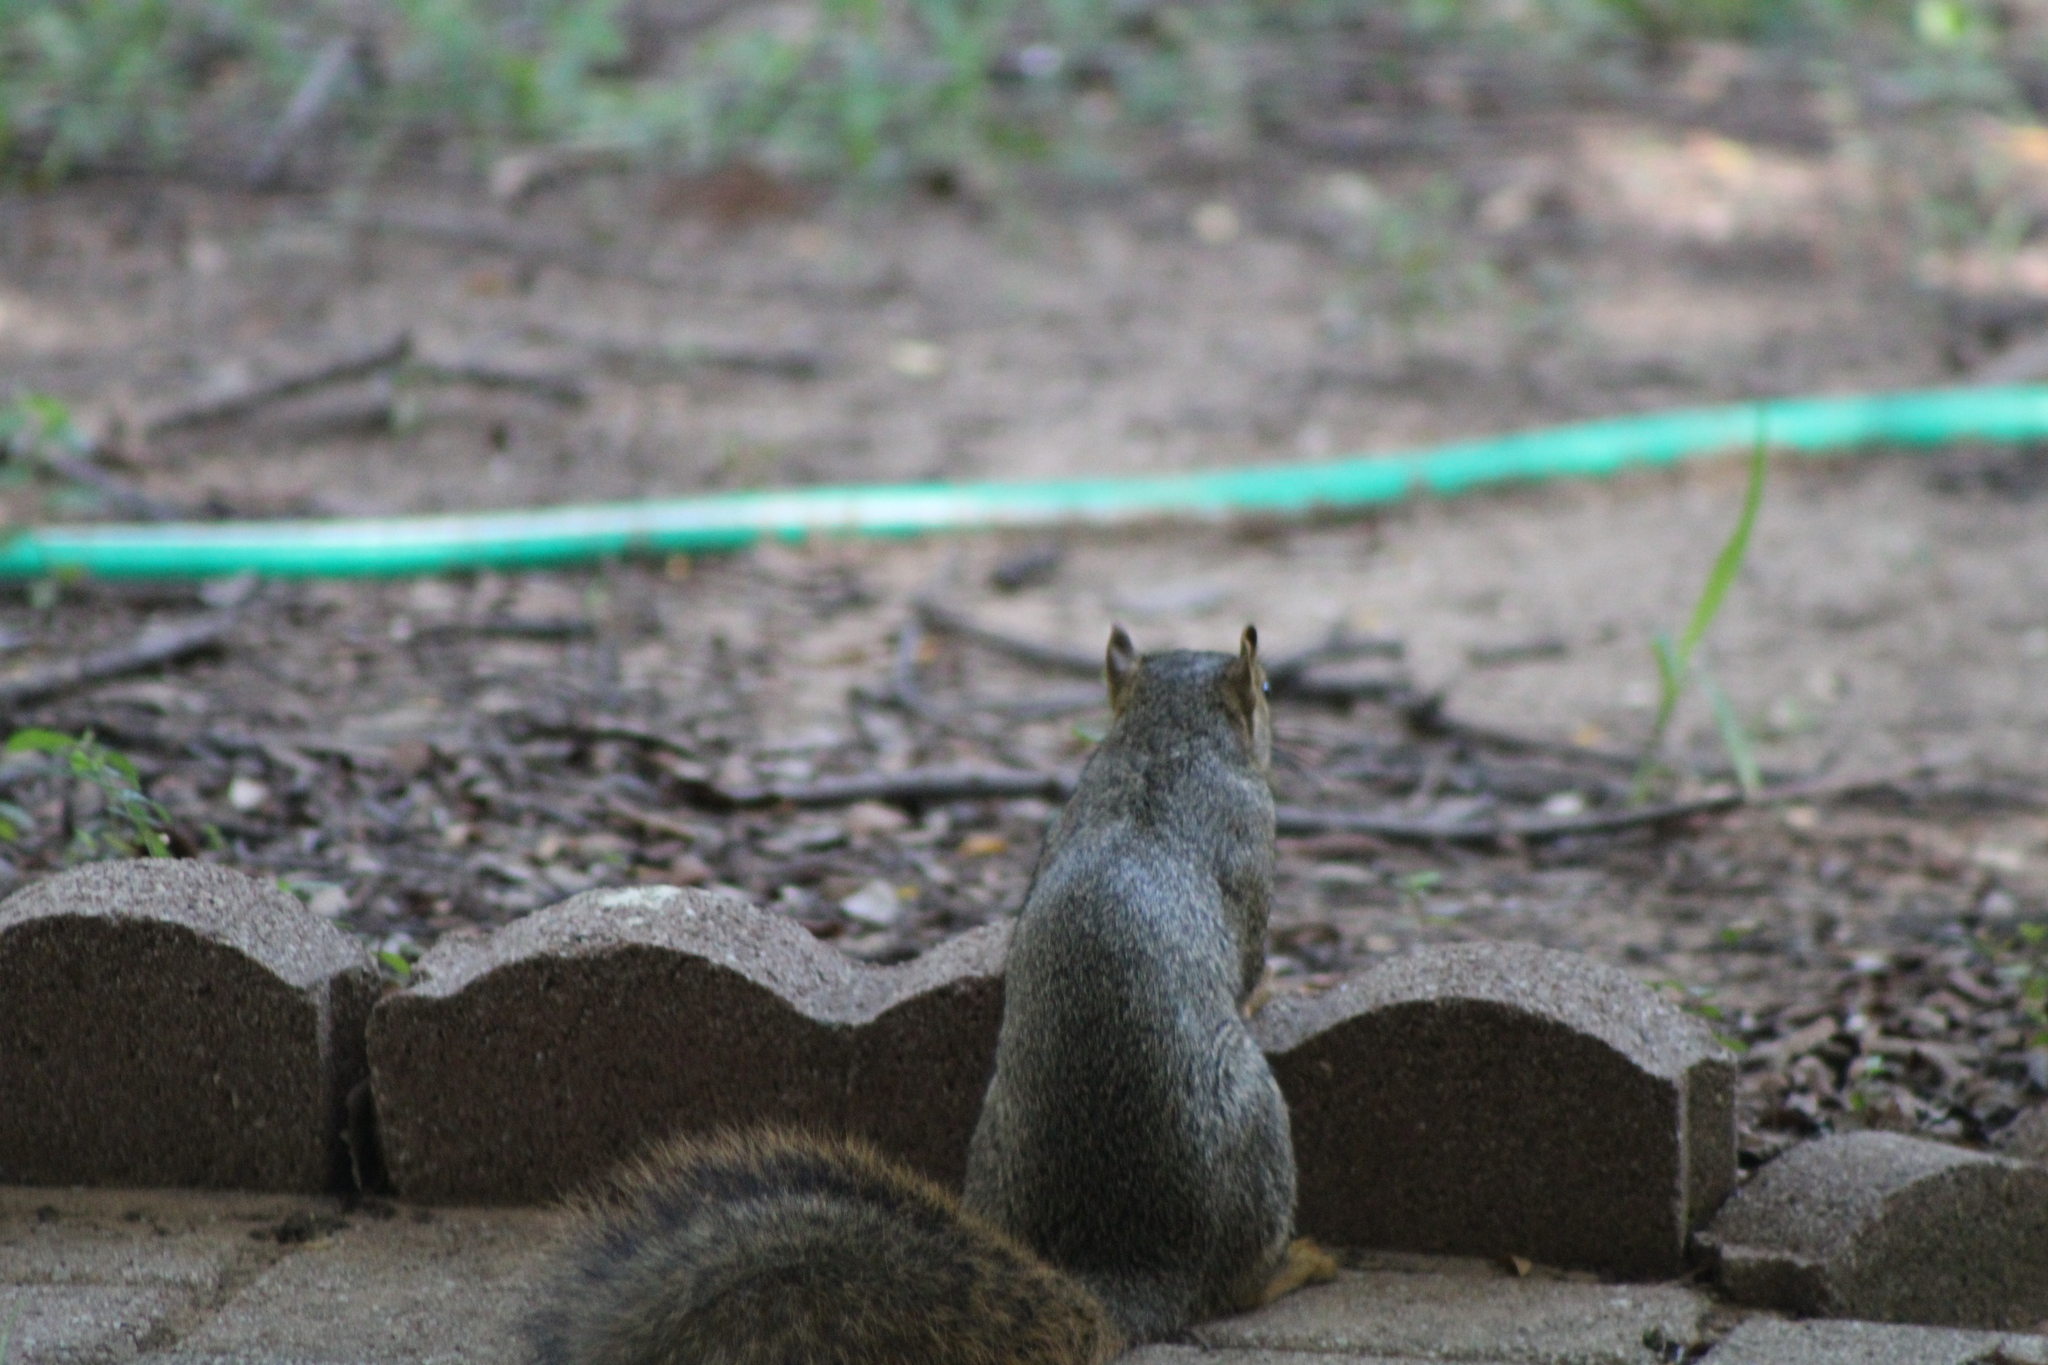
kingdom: Animalia
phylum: Chordata
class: Mammalia
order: Rodentia
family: Sciuridae
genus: Sciurus
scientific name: Sciurus niger
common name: Fox squirrel
